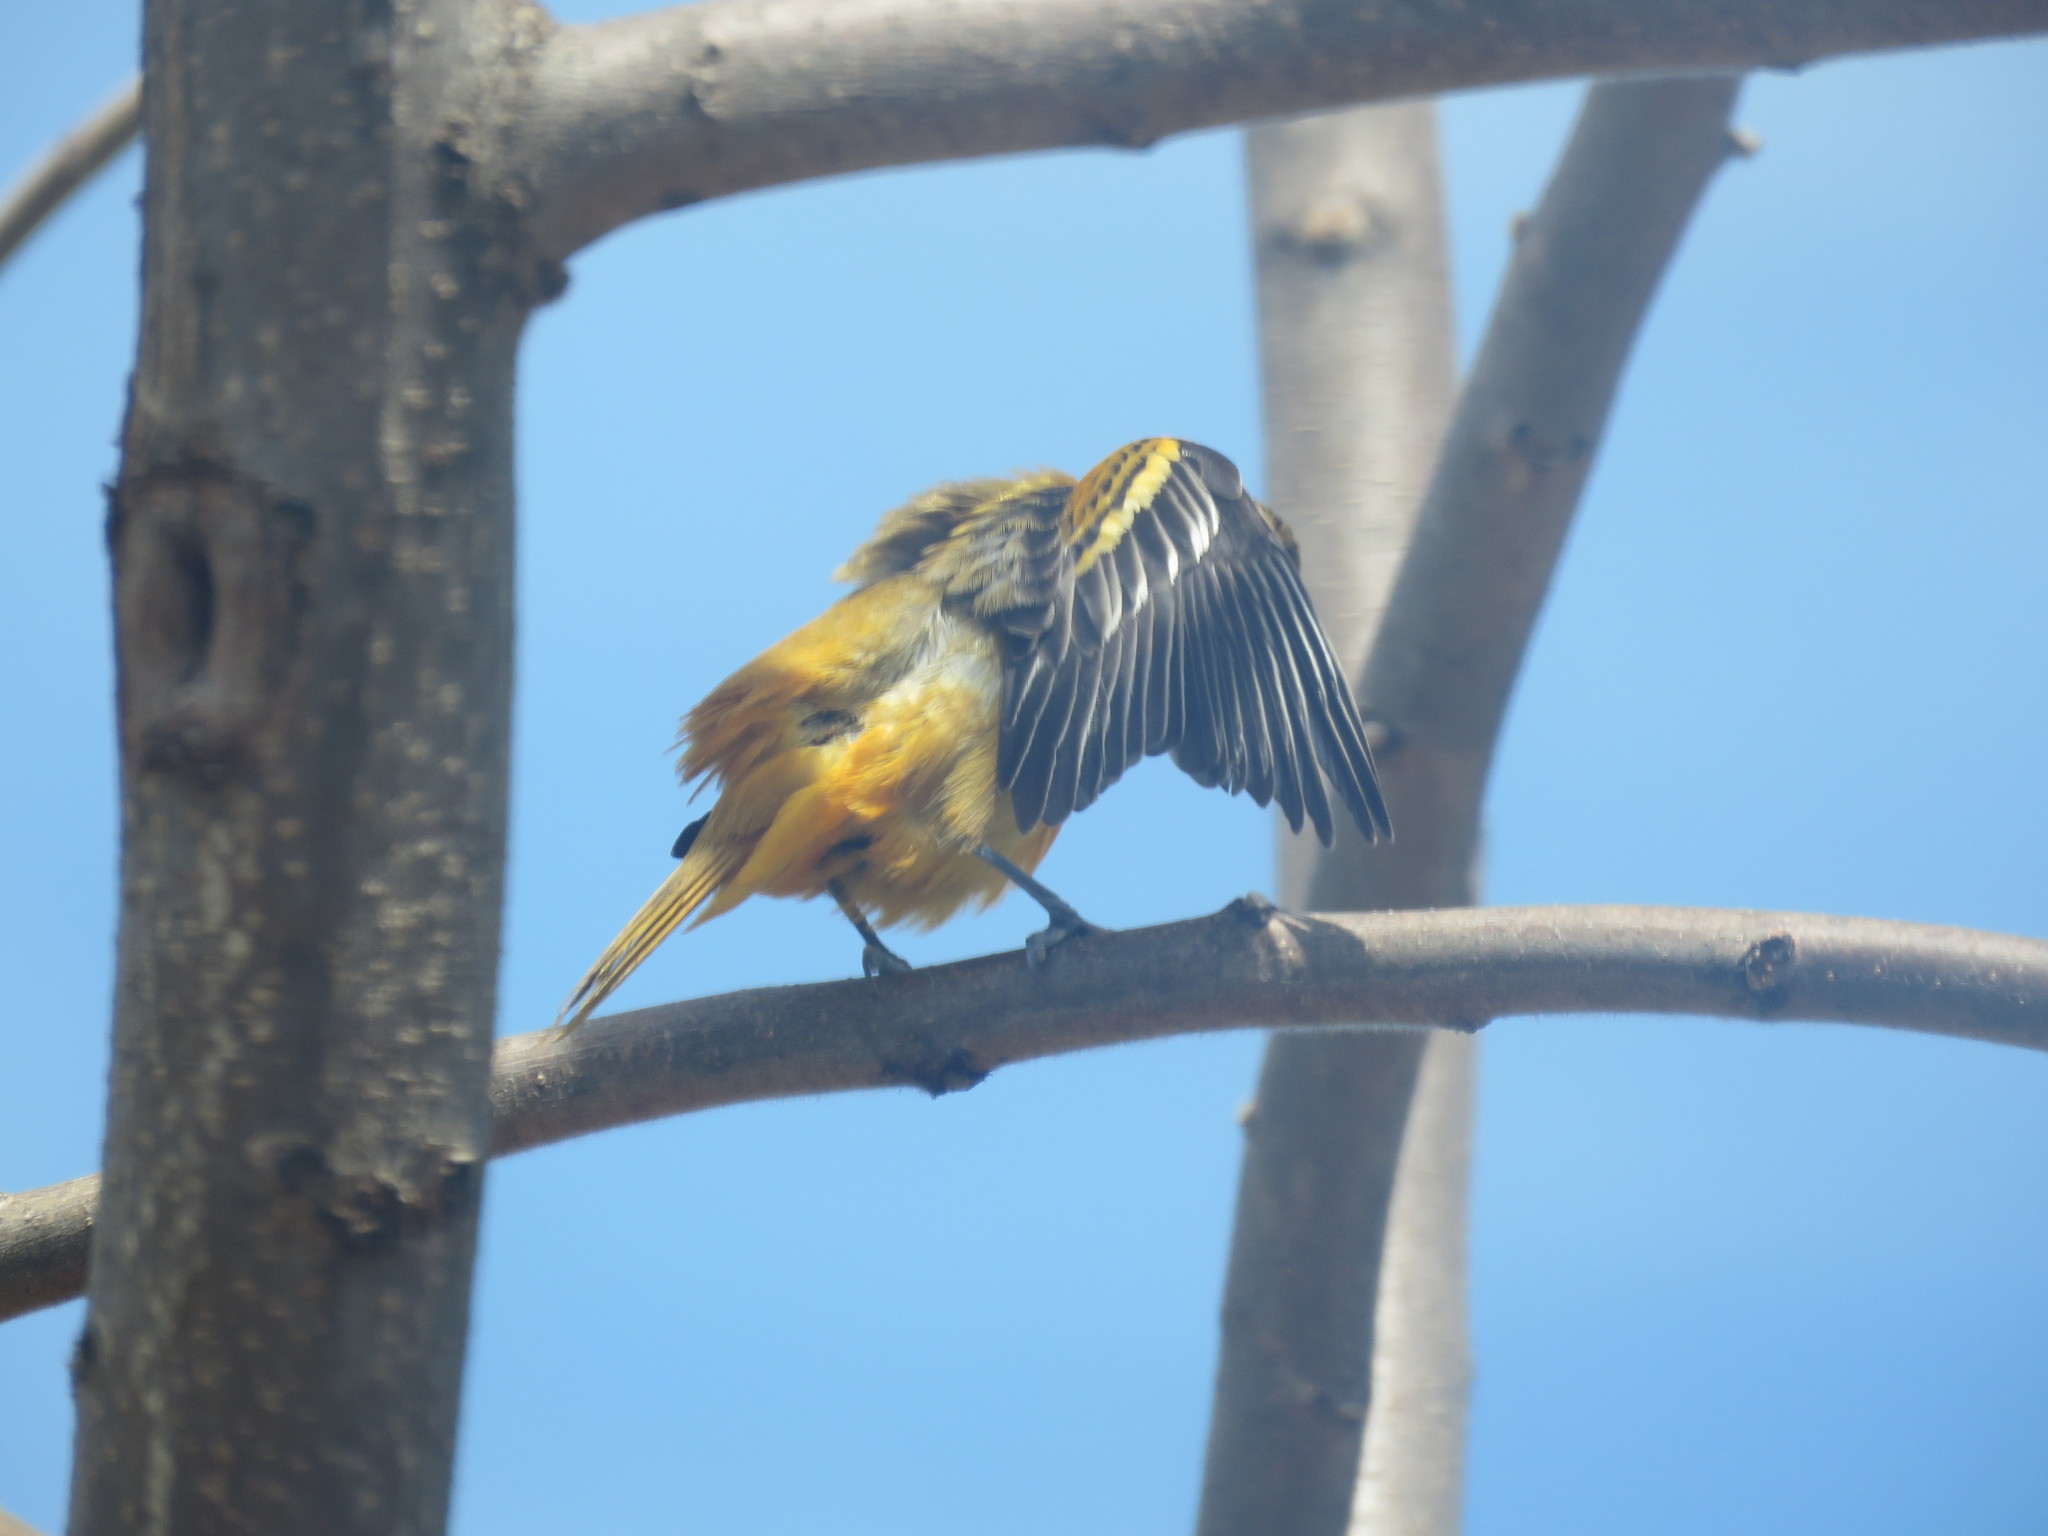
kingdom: Animalia
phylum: Chordata
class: Aves
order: Passeriformes
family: Icteridae
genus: Icterus
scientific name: Icterus galbula
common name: Baltimore oriole
